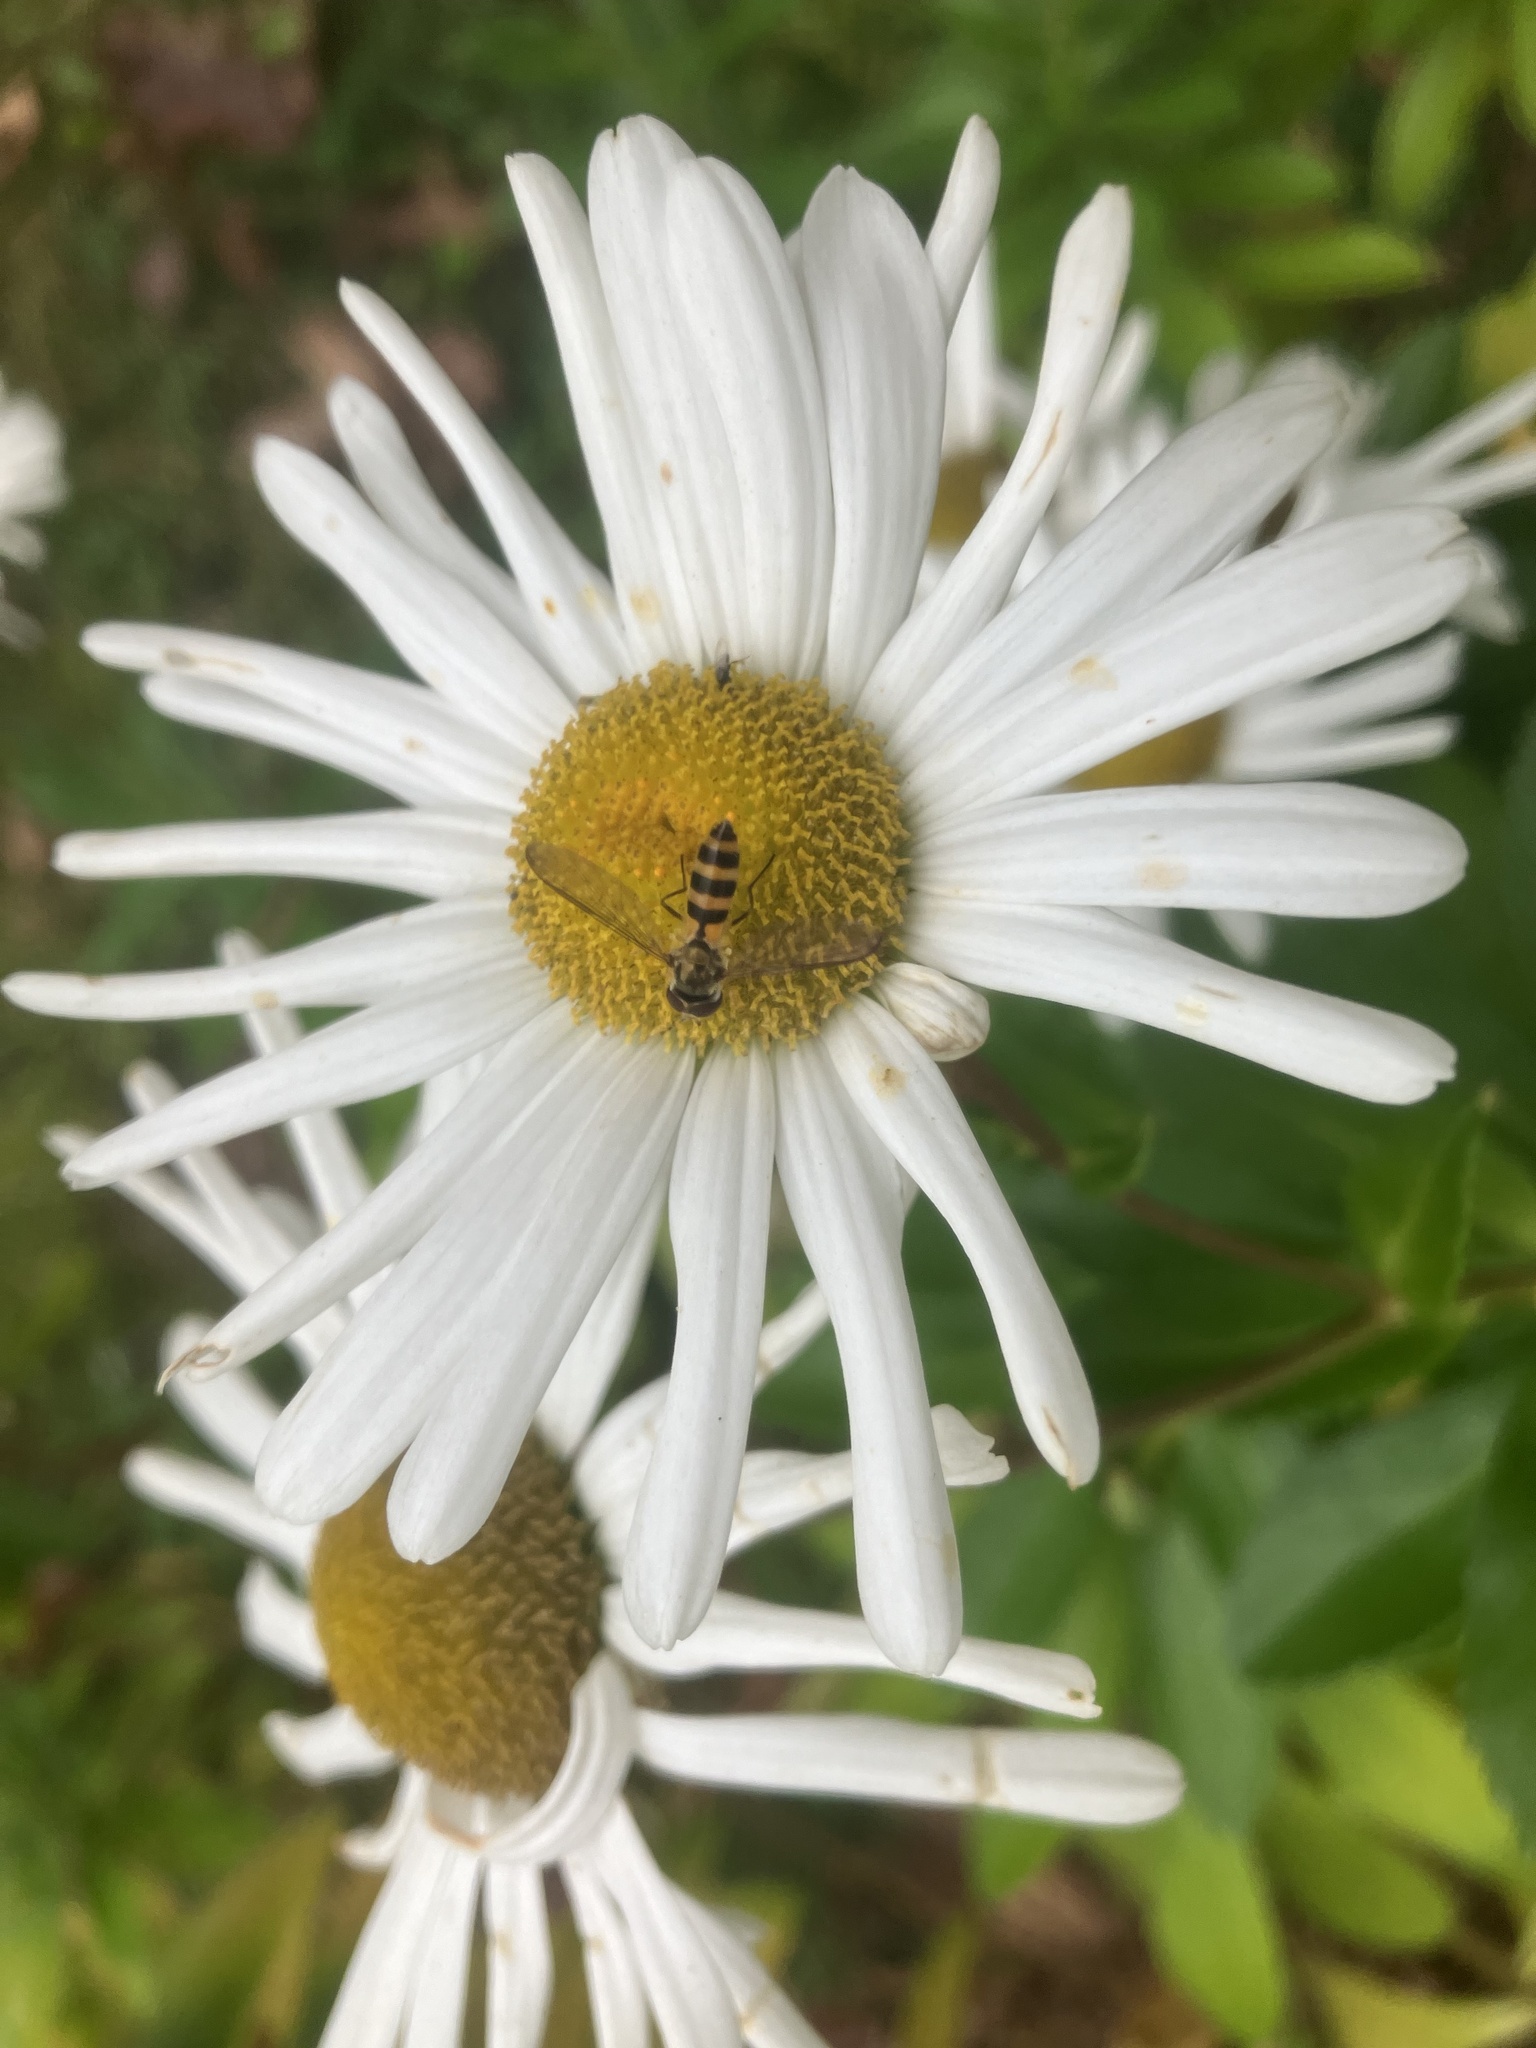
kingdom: Animalia
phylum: Arthropoda
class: Insecta
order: Diptera
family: Syrphidae
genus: Meliscaeva
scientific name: Meliscaeva cinctella
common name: American thintail fly
